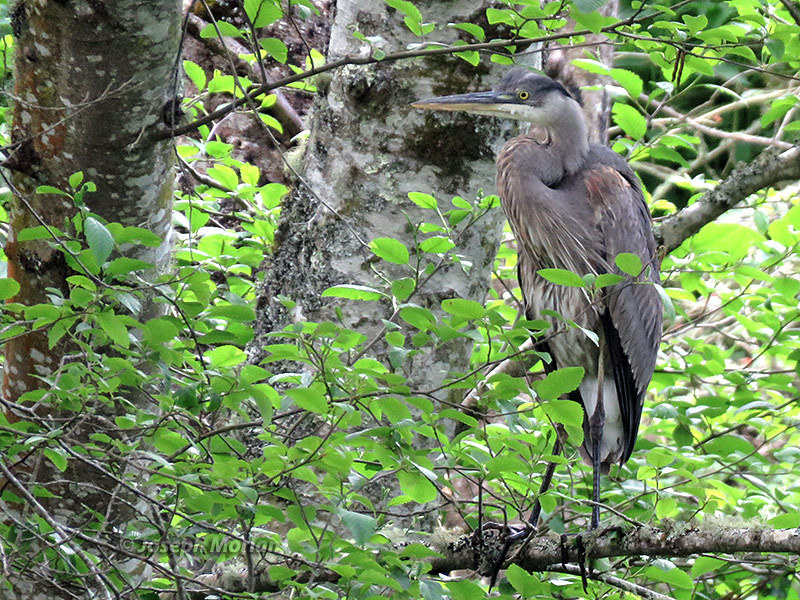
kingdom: Animalia
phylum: Chordata
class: Aves
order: Pelecaniformes
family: Ardeidae
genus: Ardea
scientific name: Ardea herodias
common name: Great blue heron
